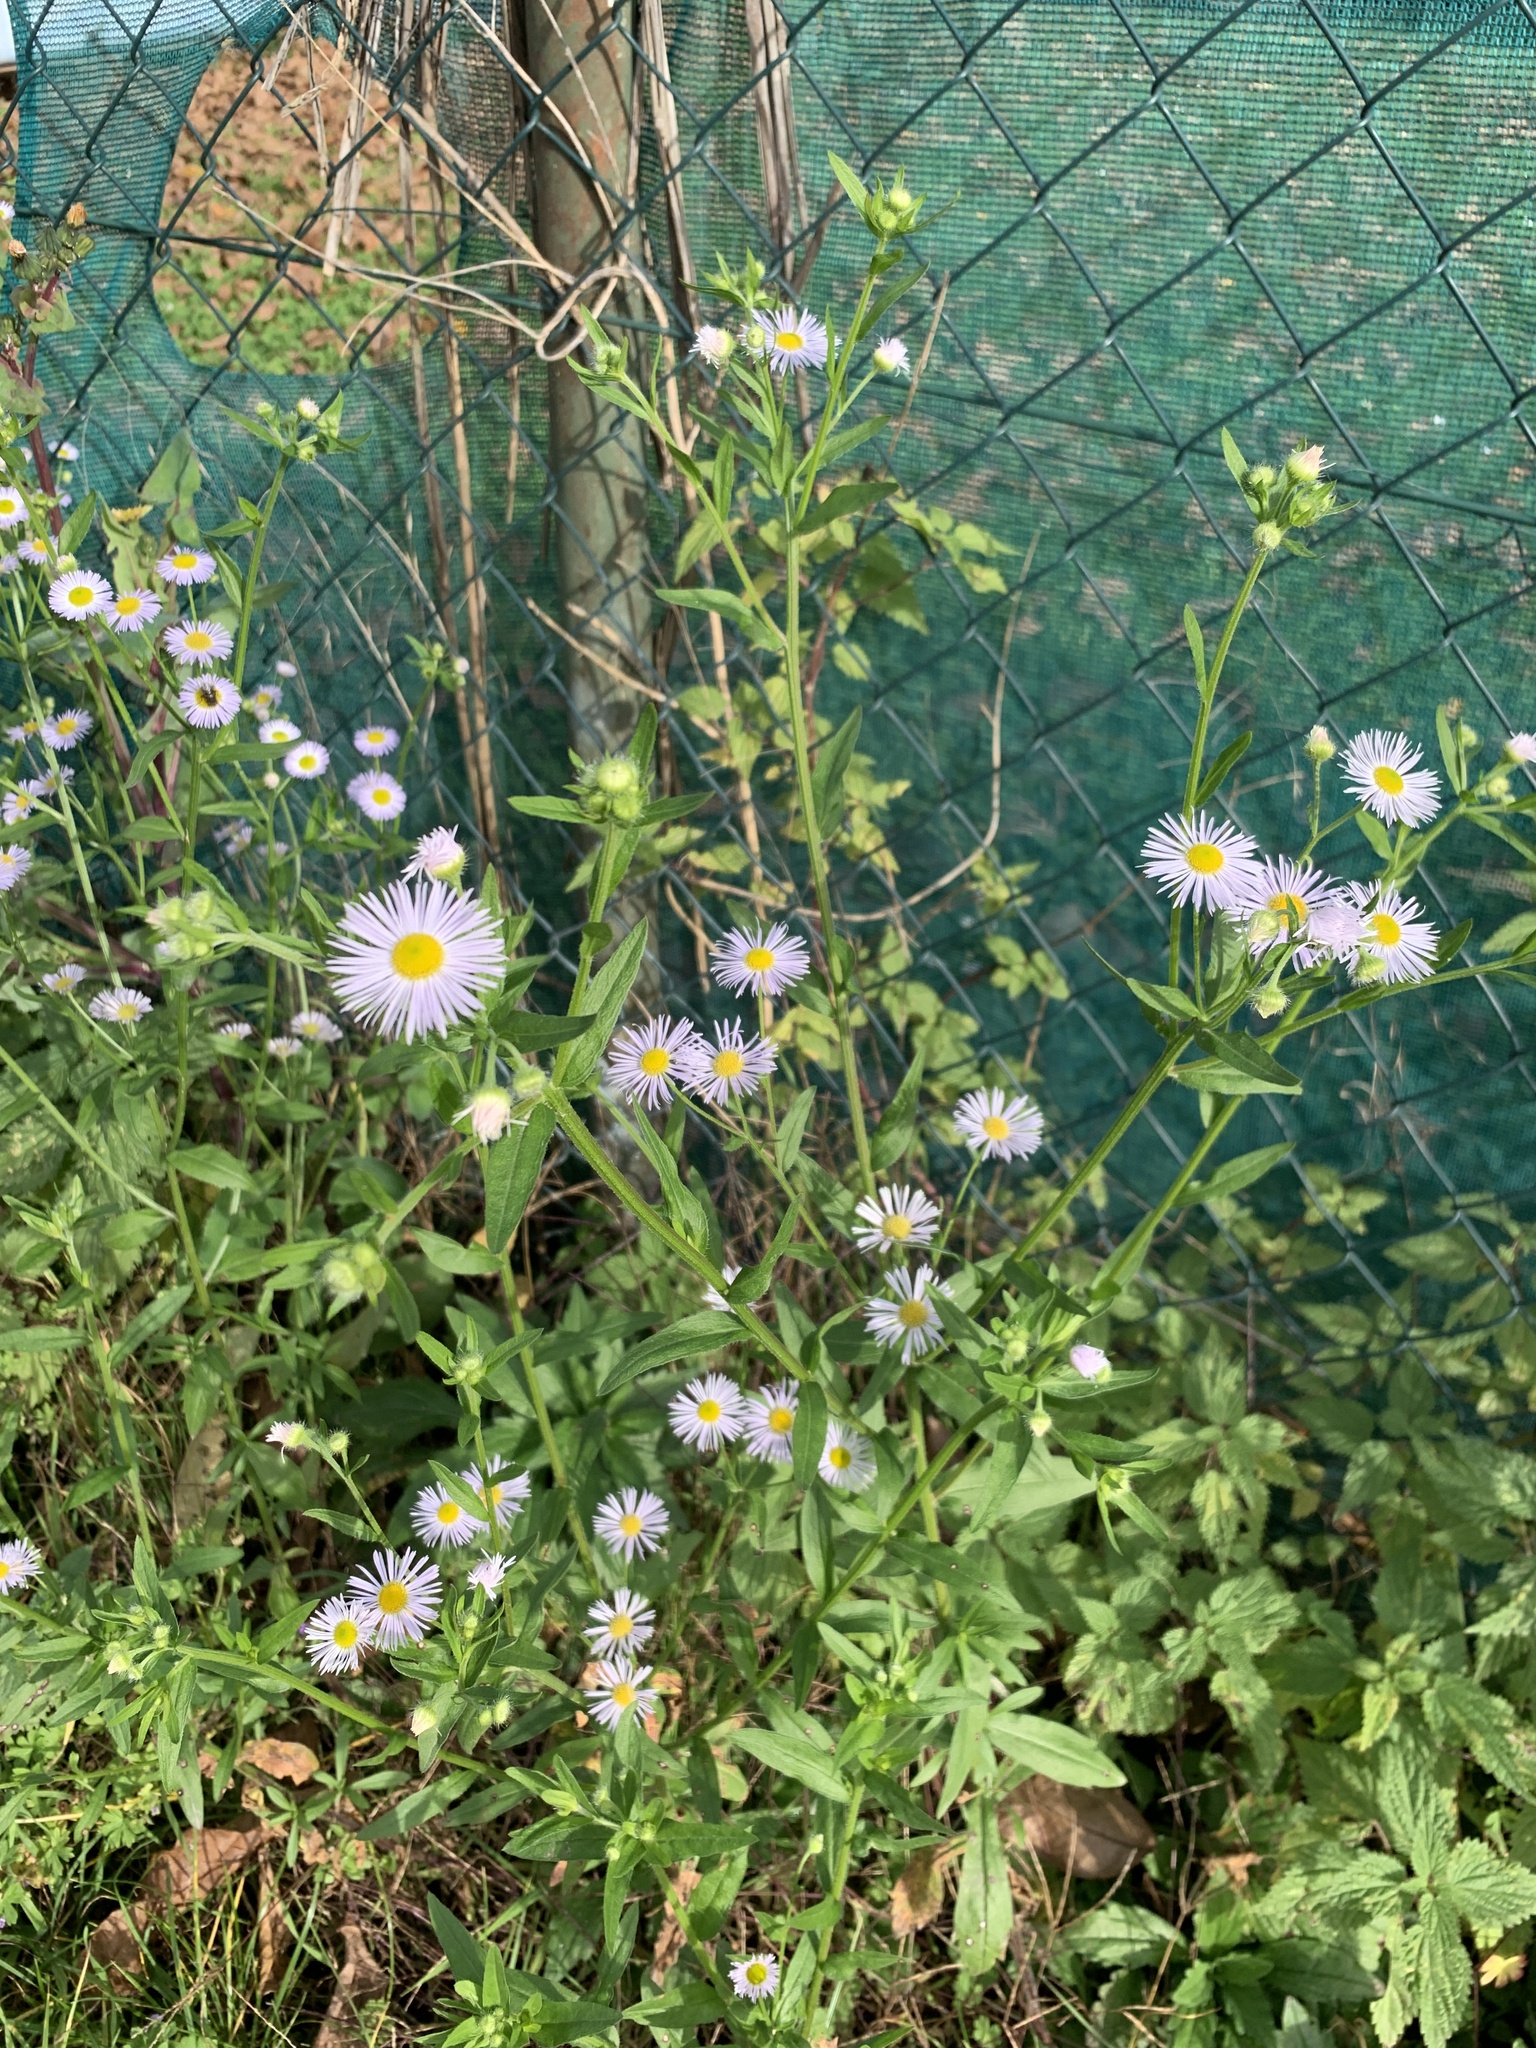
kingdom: Plantae
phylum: Tracheophyta
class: Magnoliopsida
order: Asterales
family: Asteraceae
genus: Erigeron
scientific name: Erigeron annuus
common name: Tall fleabane
